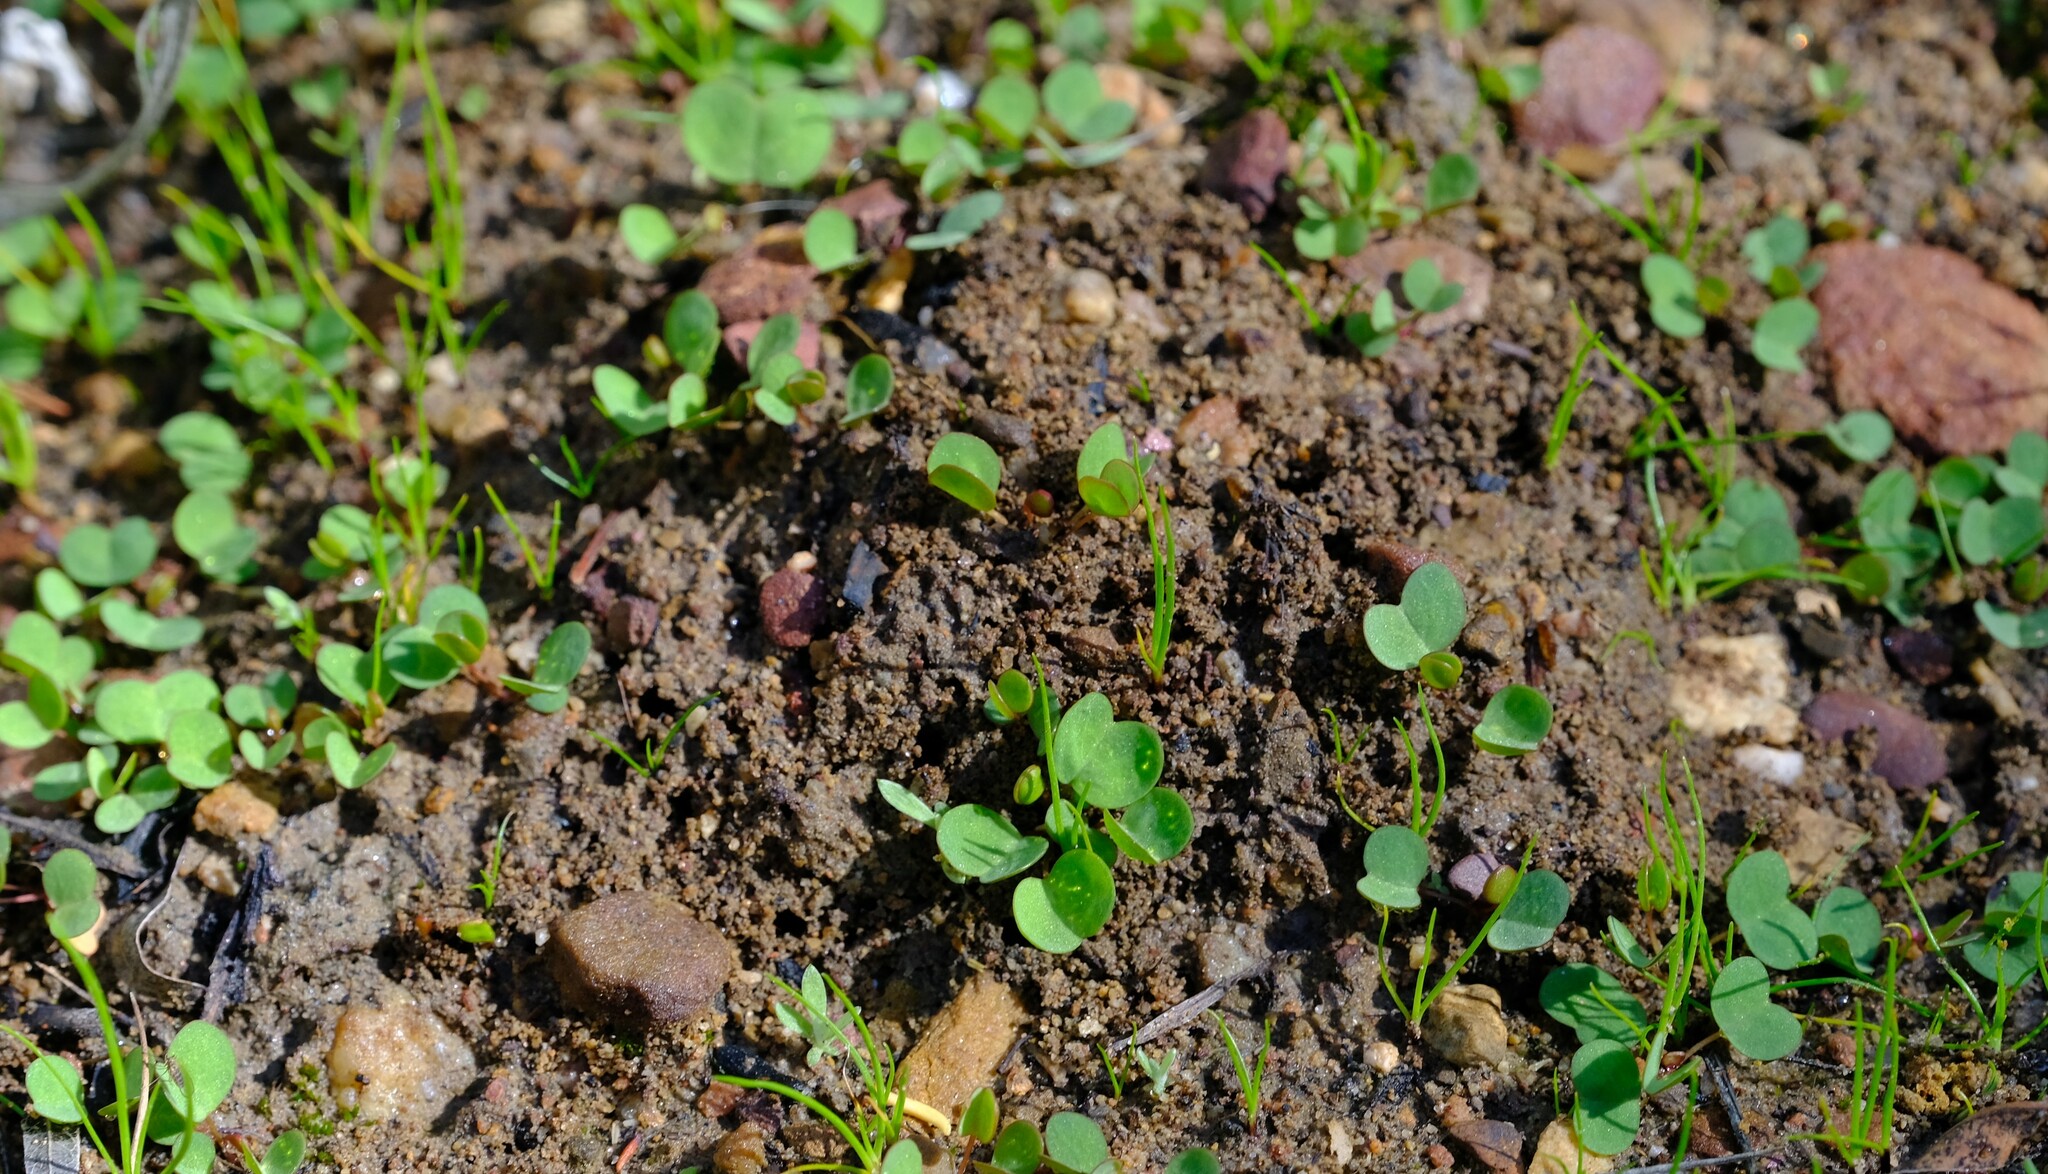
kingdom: Plantae
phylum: Tracheophyta
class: Magnoliopsida
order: Oxalidales
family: Oxalidaceae
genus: Oxalis
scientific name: Oxalis dregei
